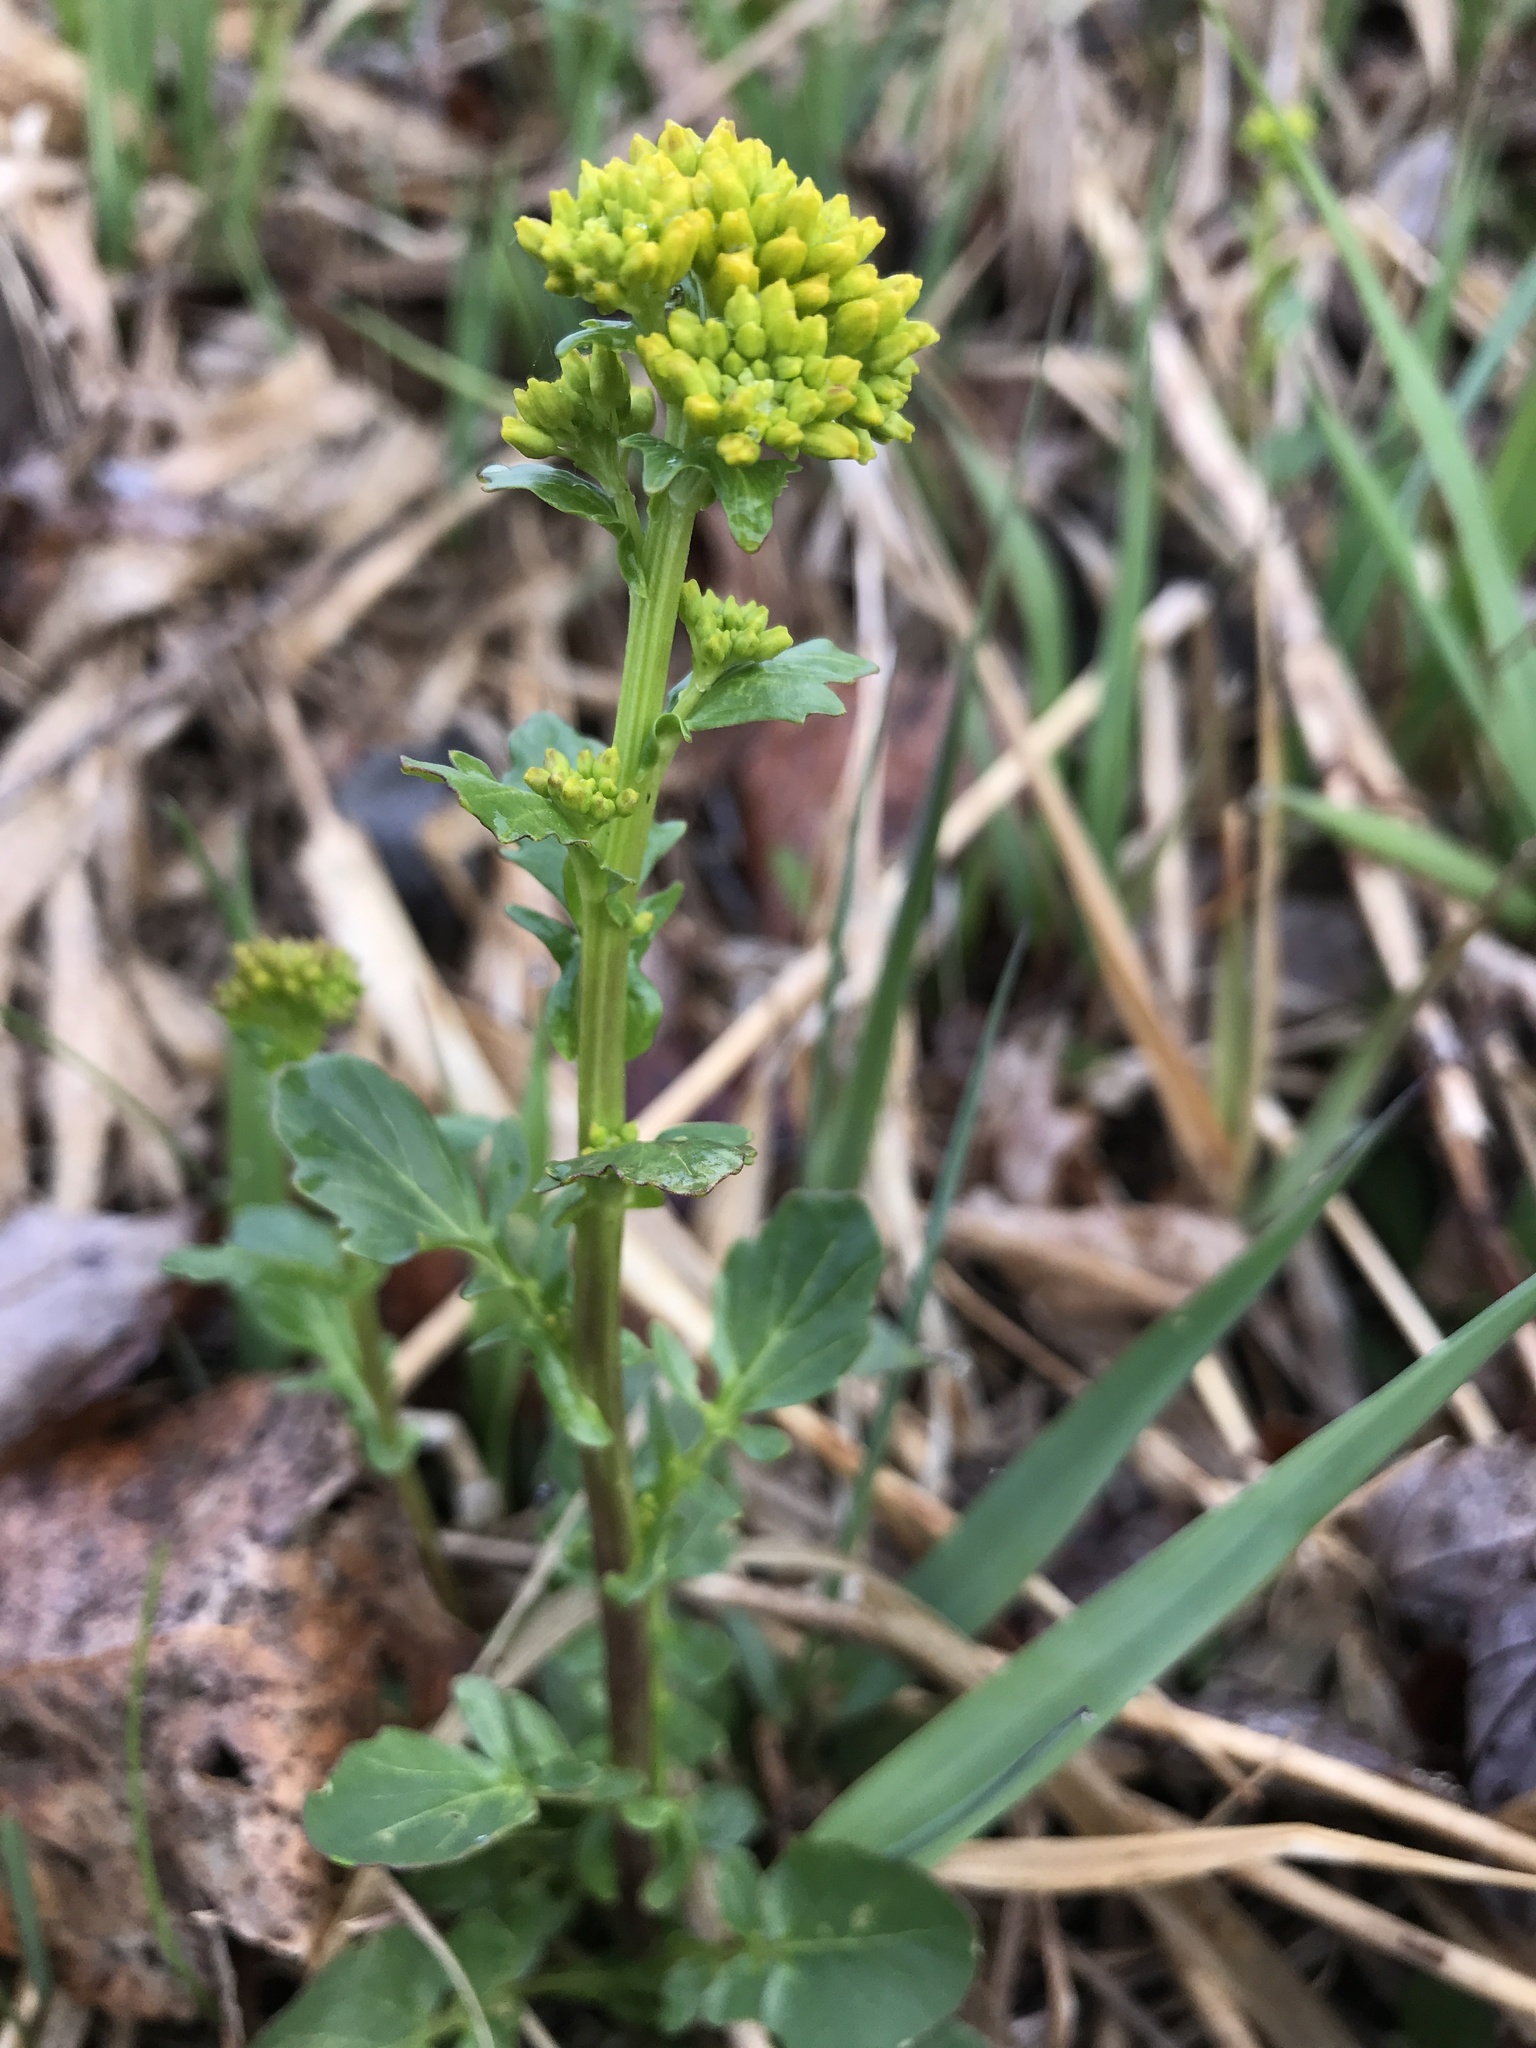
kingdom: Plantae
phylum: Tracheophyta
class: Magnoliopsida
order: Brassicales
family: Brassicaceae
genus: Barbarea
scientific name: Barbarea vulgaris
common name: Cressy-greens
